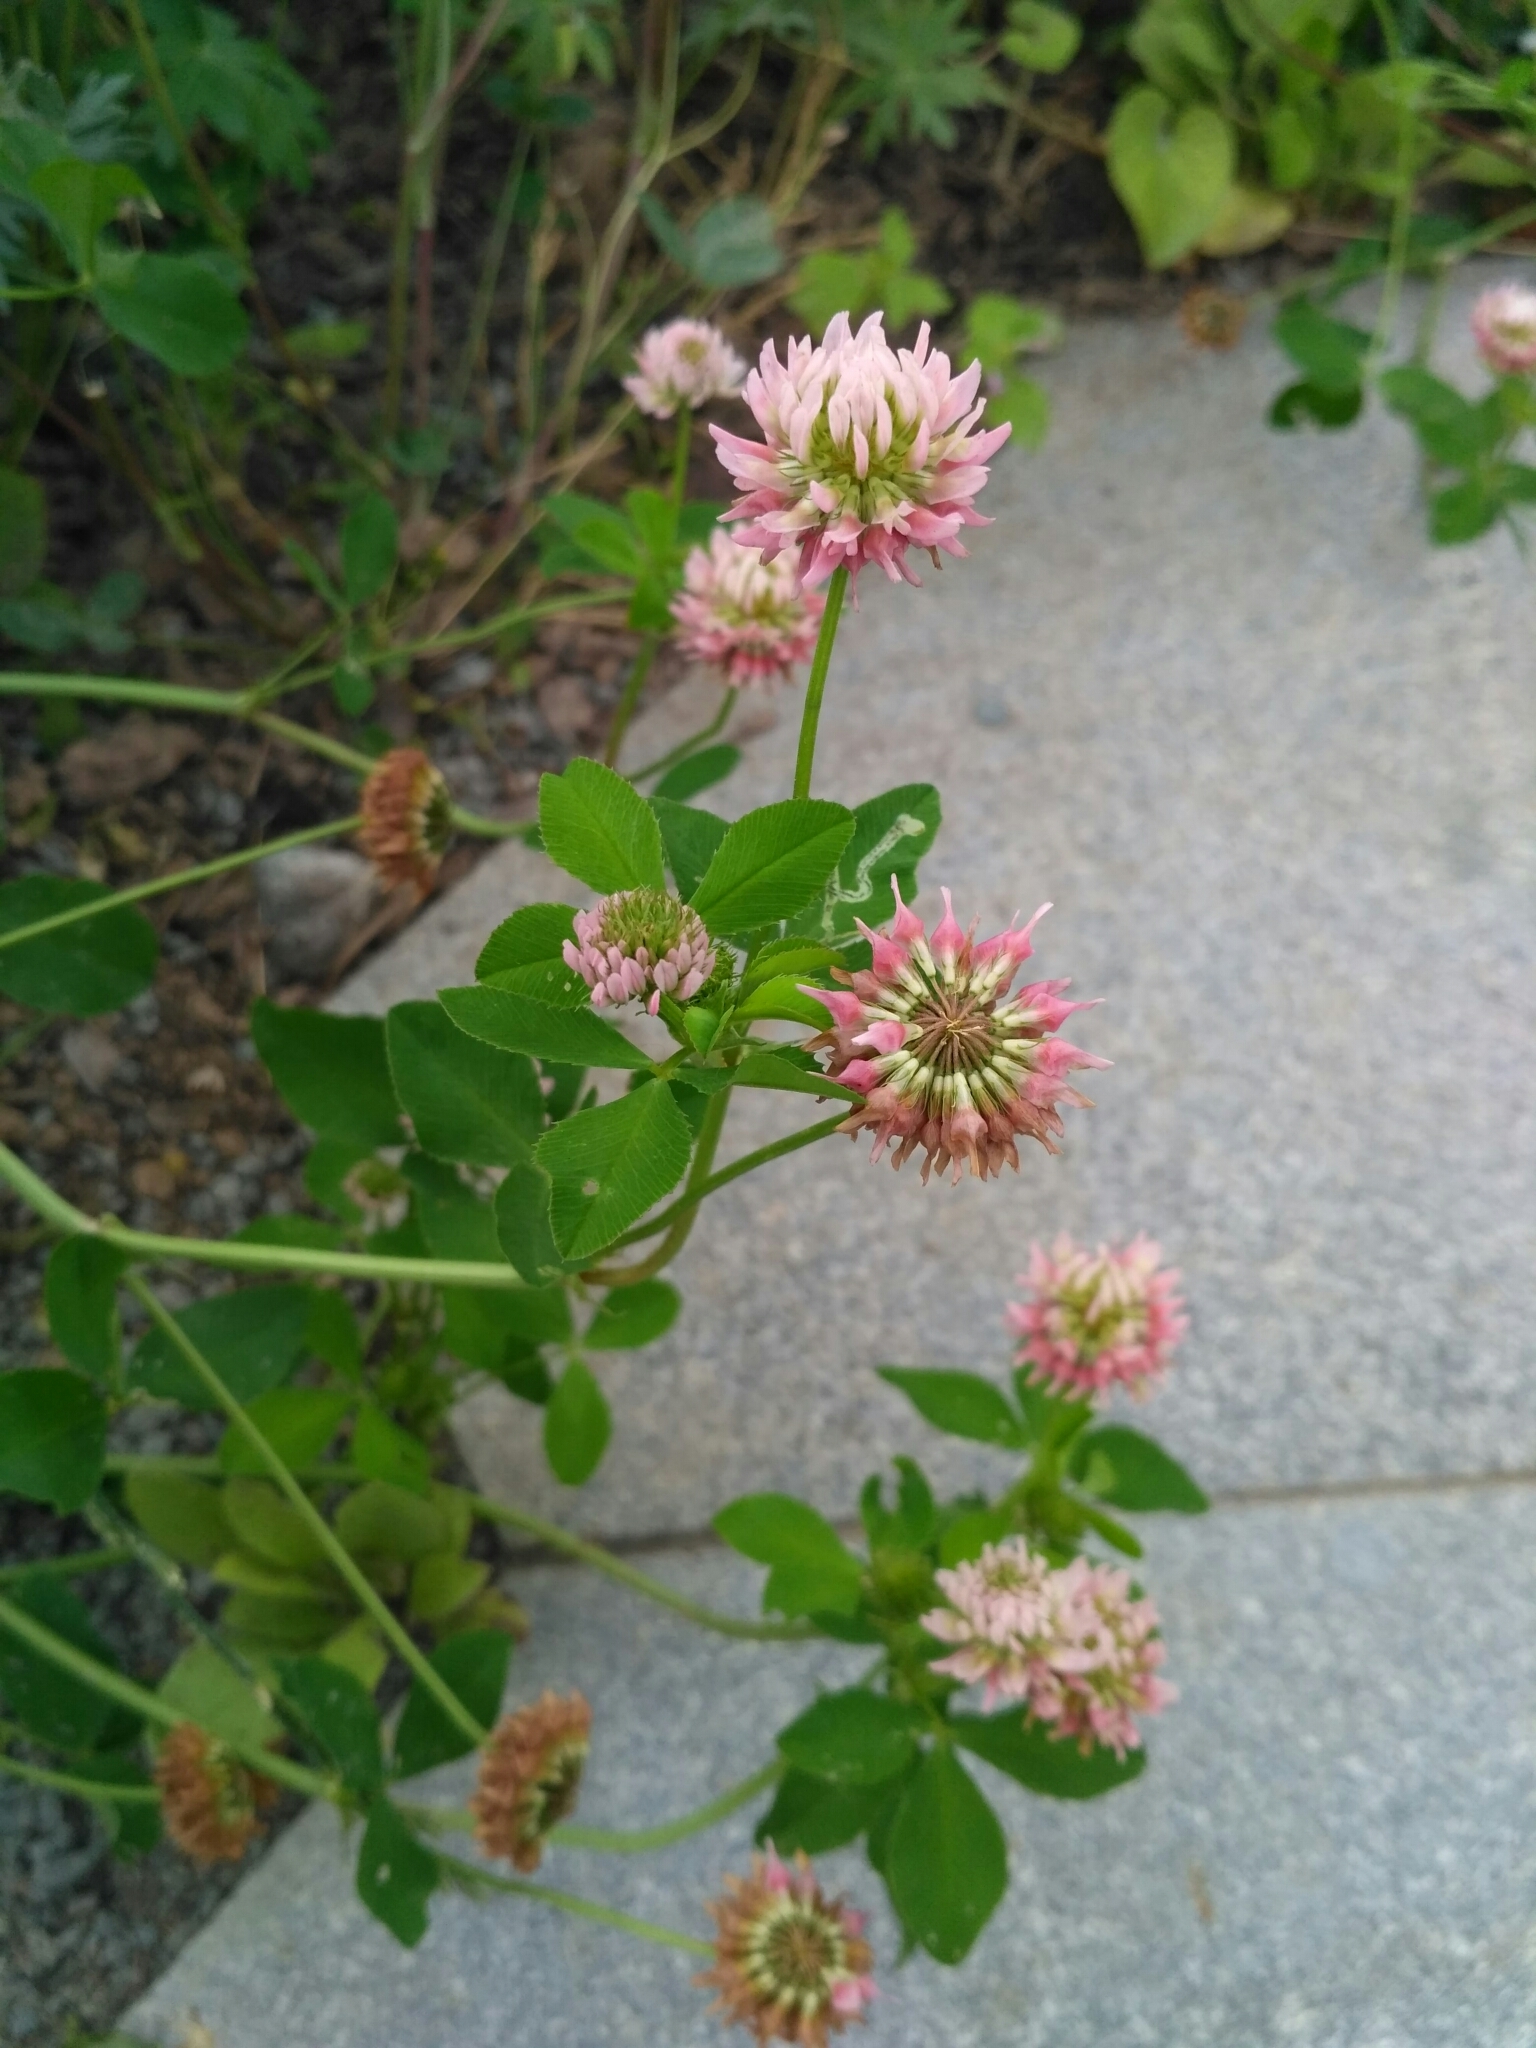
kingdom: Plantae
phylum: Tracheophyta
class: Magnoliopsida
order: Fabales
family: Fabaceae
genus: Trifolium
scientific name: Trifolium hybridum
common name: Alsike clover
